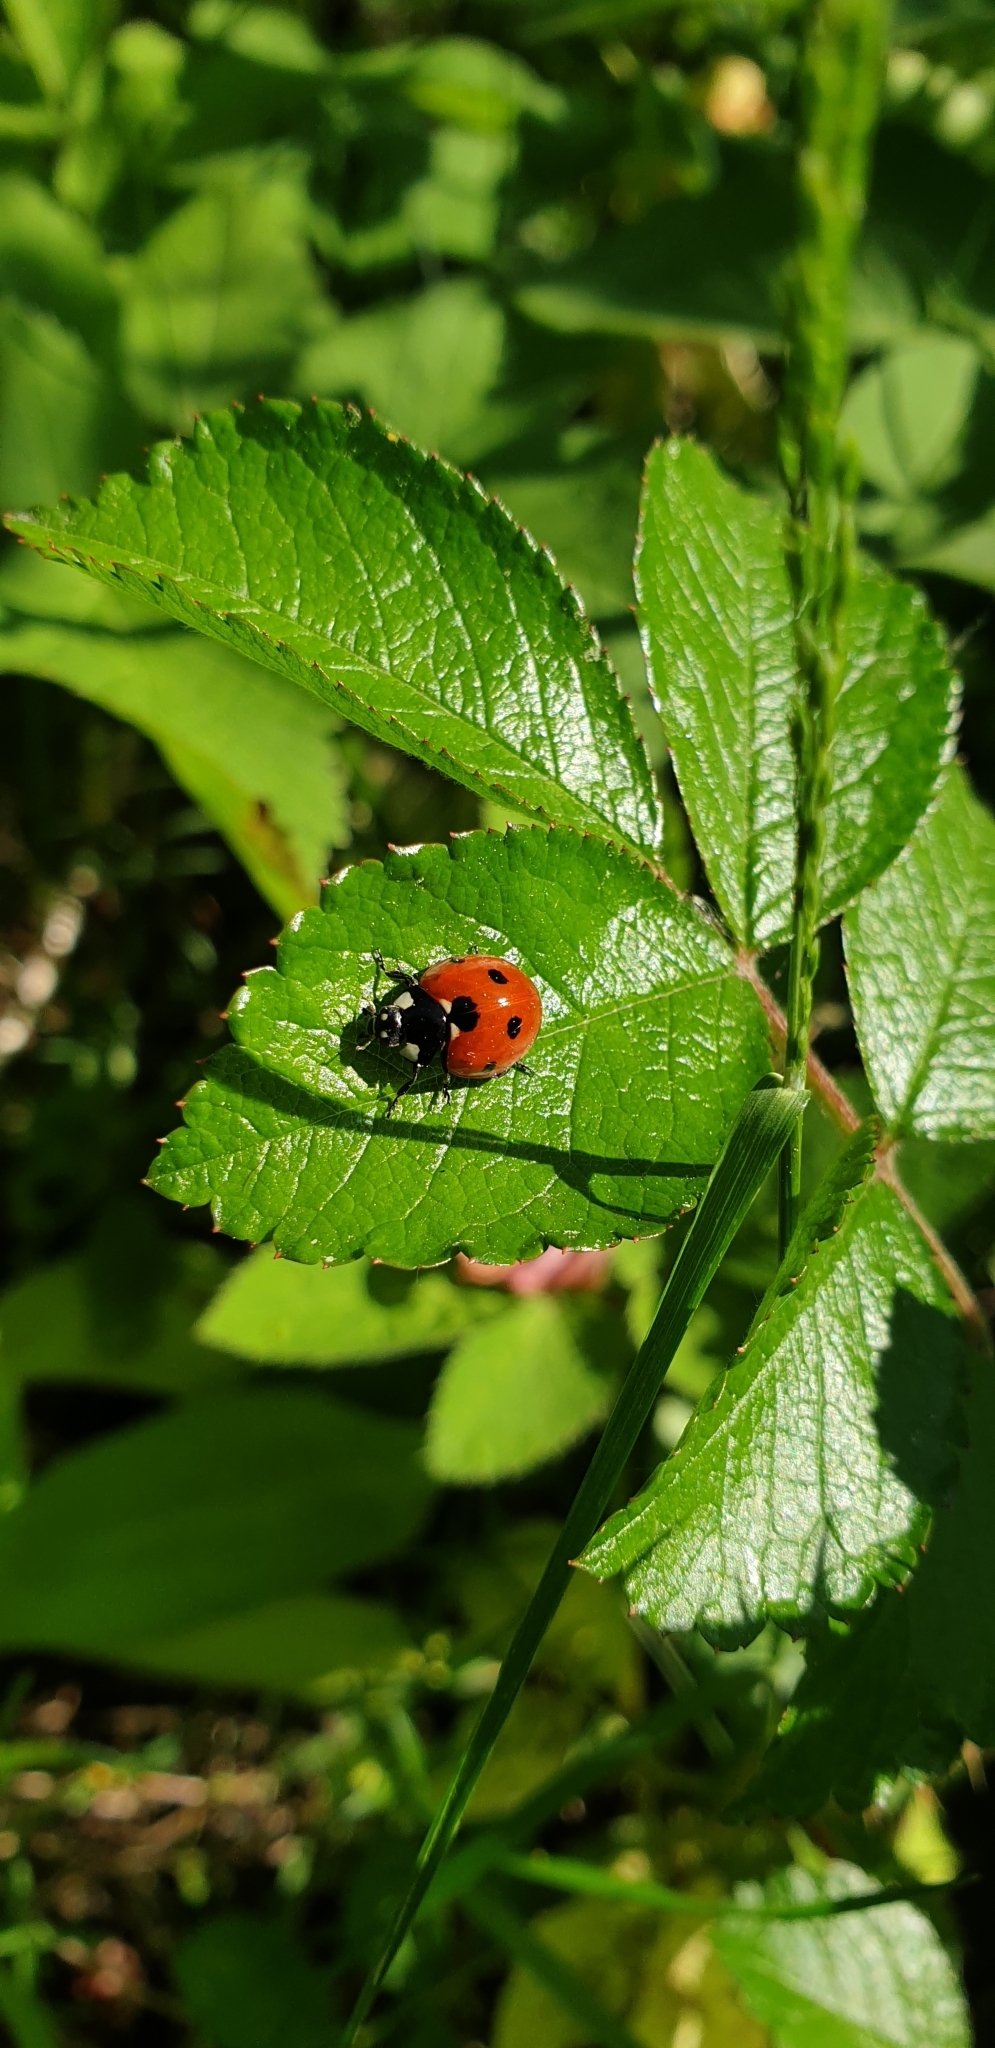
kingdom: Animalia
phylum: Arthropoda
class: Insecta
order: Coleoptera
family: Coccinellidae
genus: Coccinella
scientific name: Coccinella septempunctata
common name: Sevenspotted lady beetle
